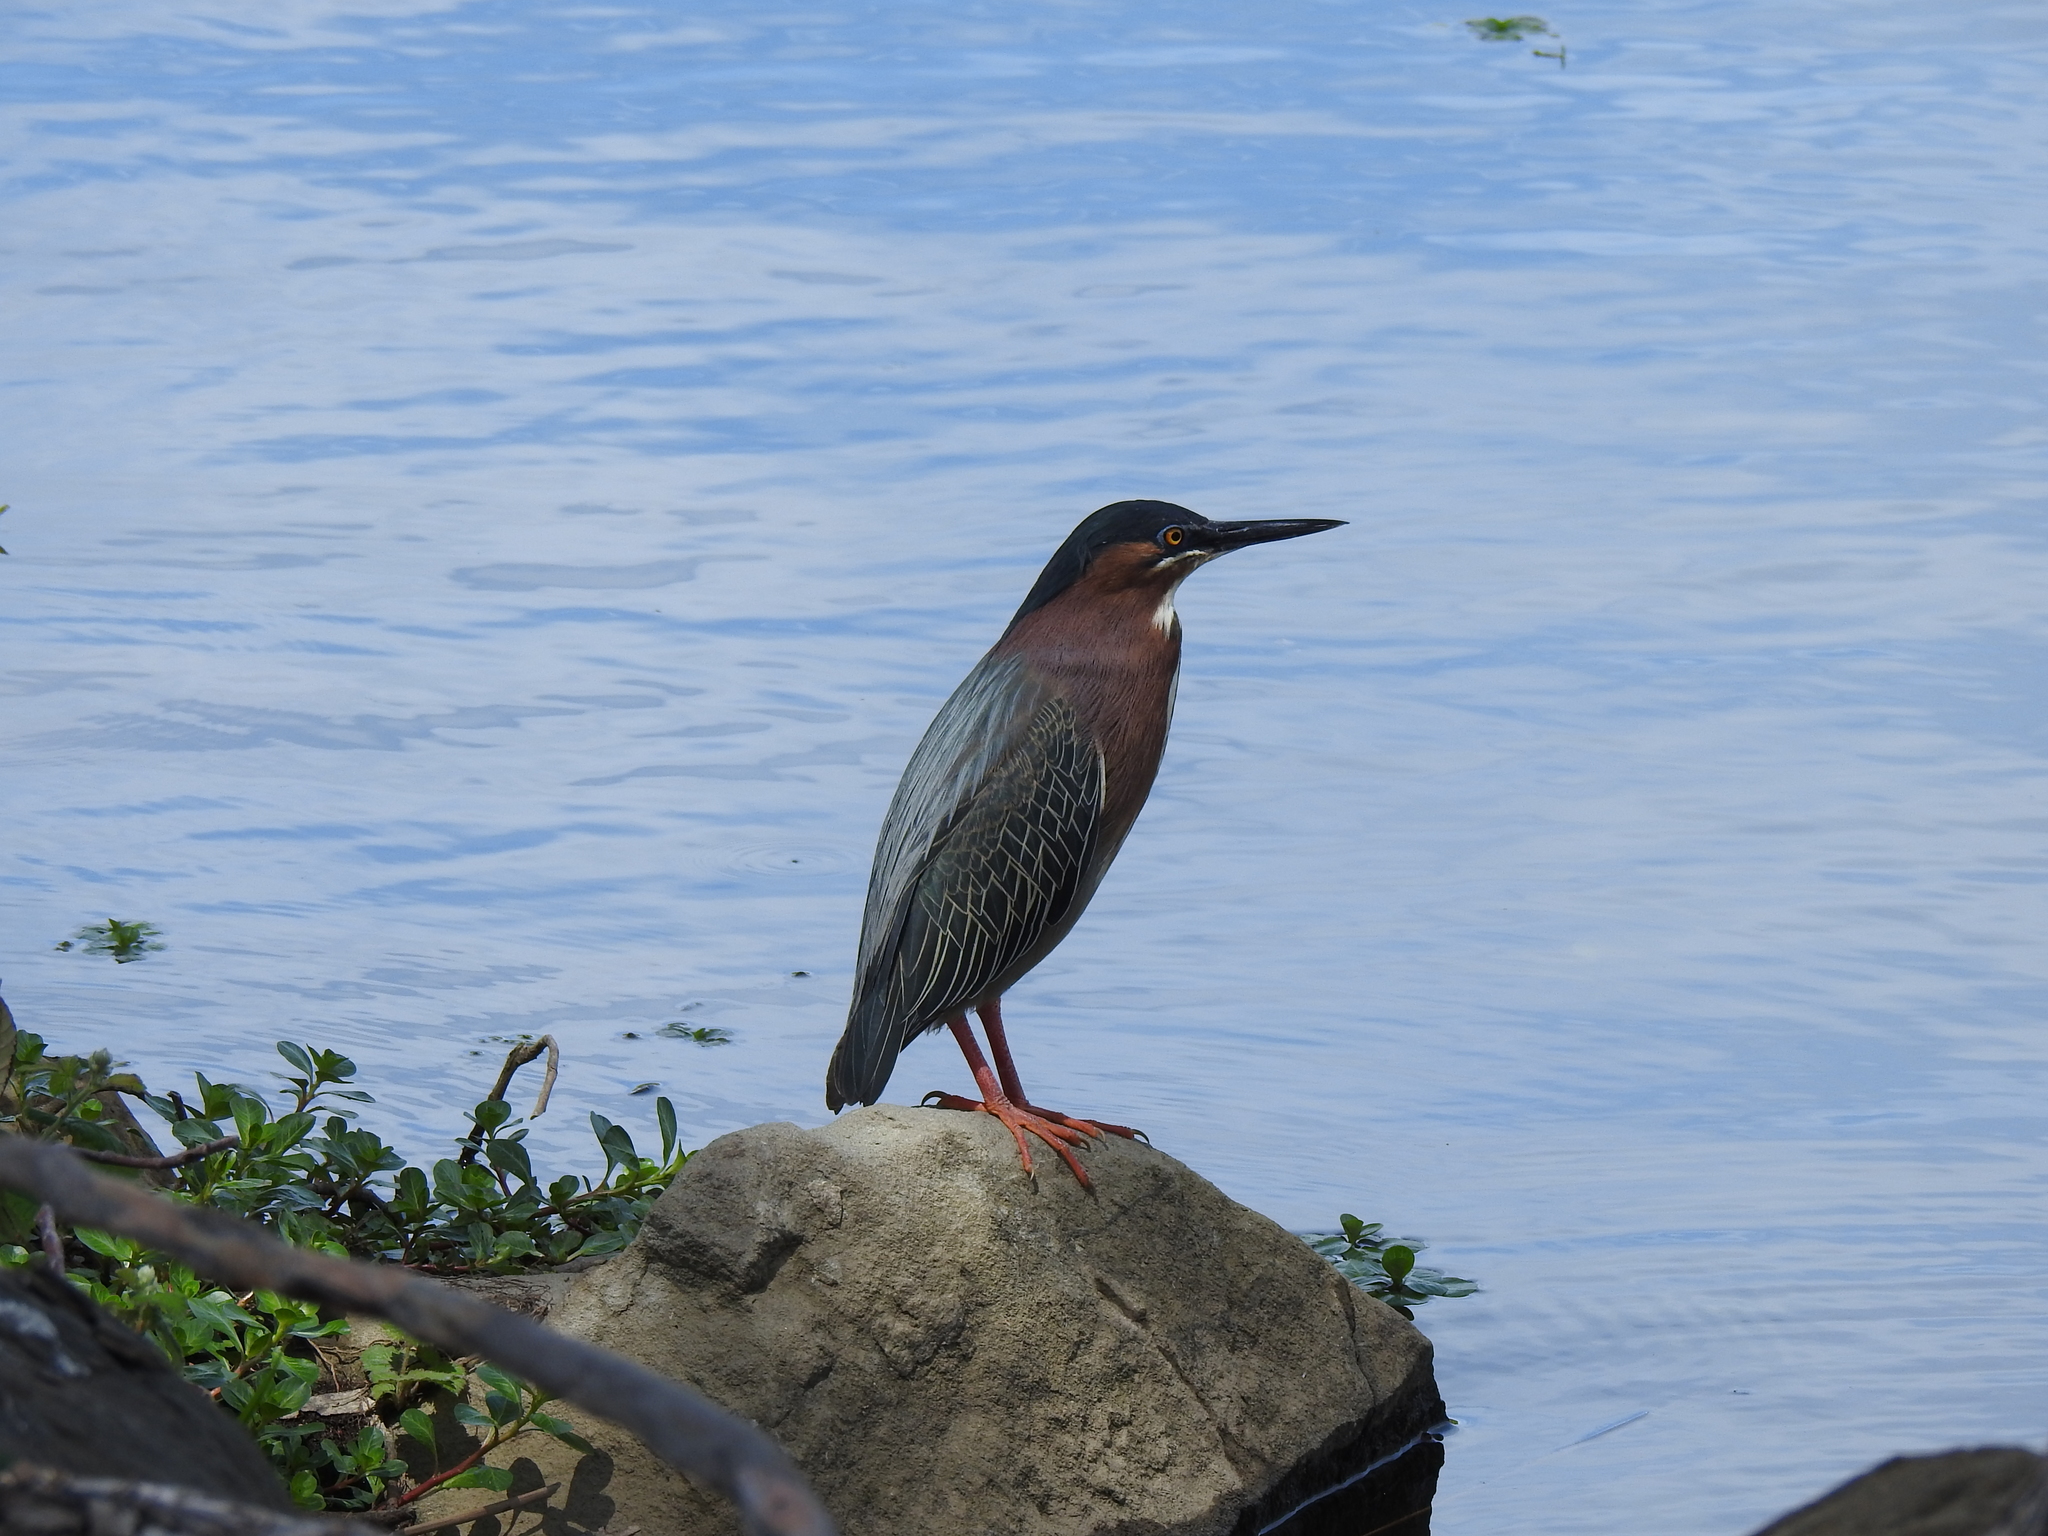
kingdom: Animalia
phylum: Chordata
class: Aves
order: Pelecaniformes
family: Ardeidae
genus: Butorides
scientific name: Butorides virescens
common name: Green heron
